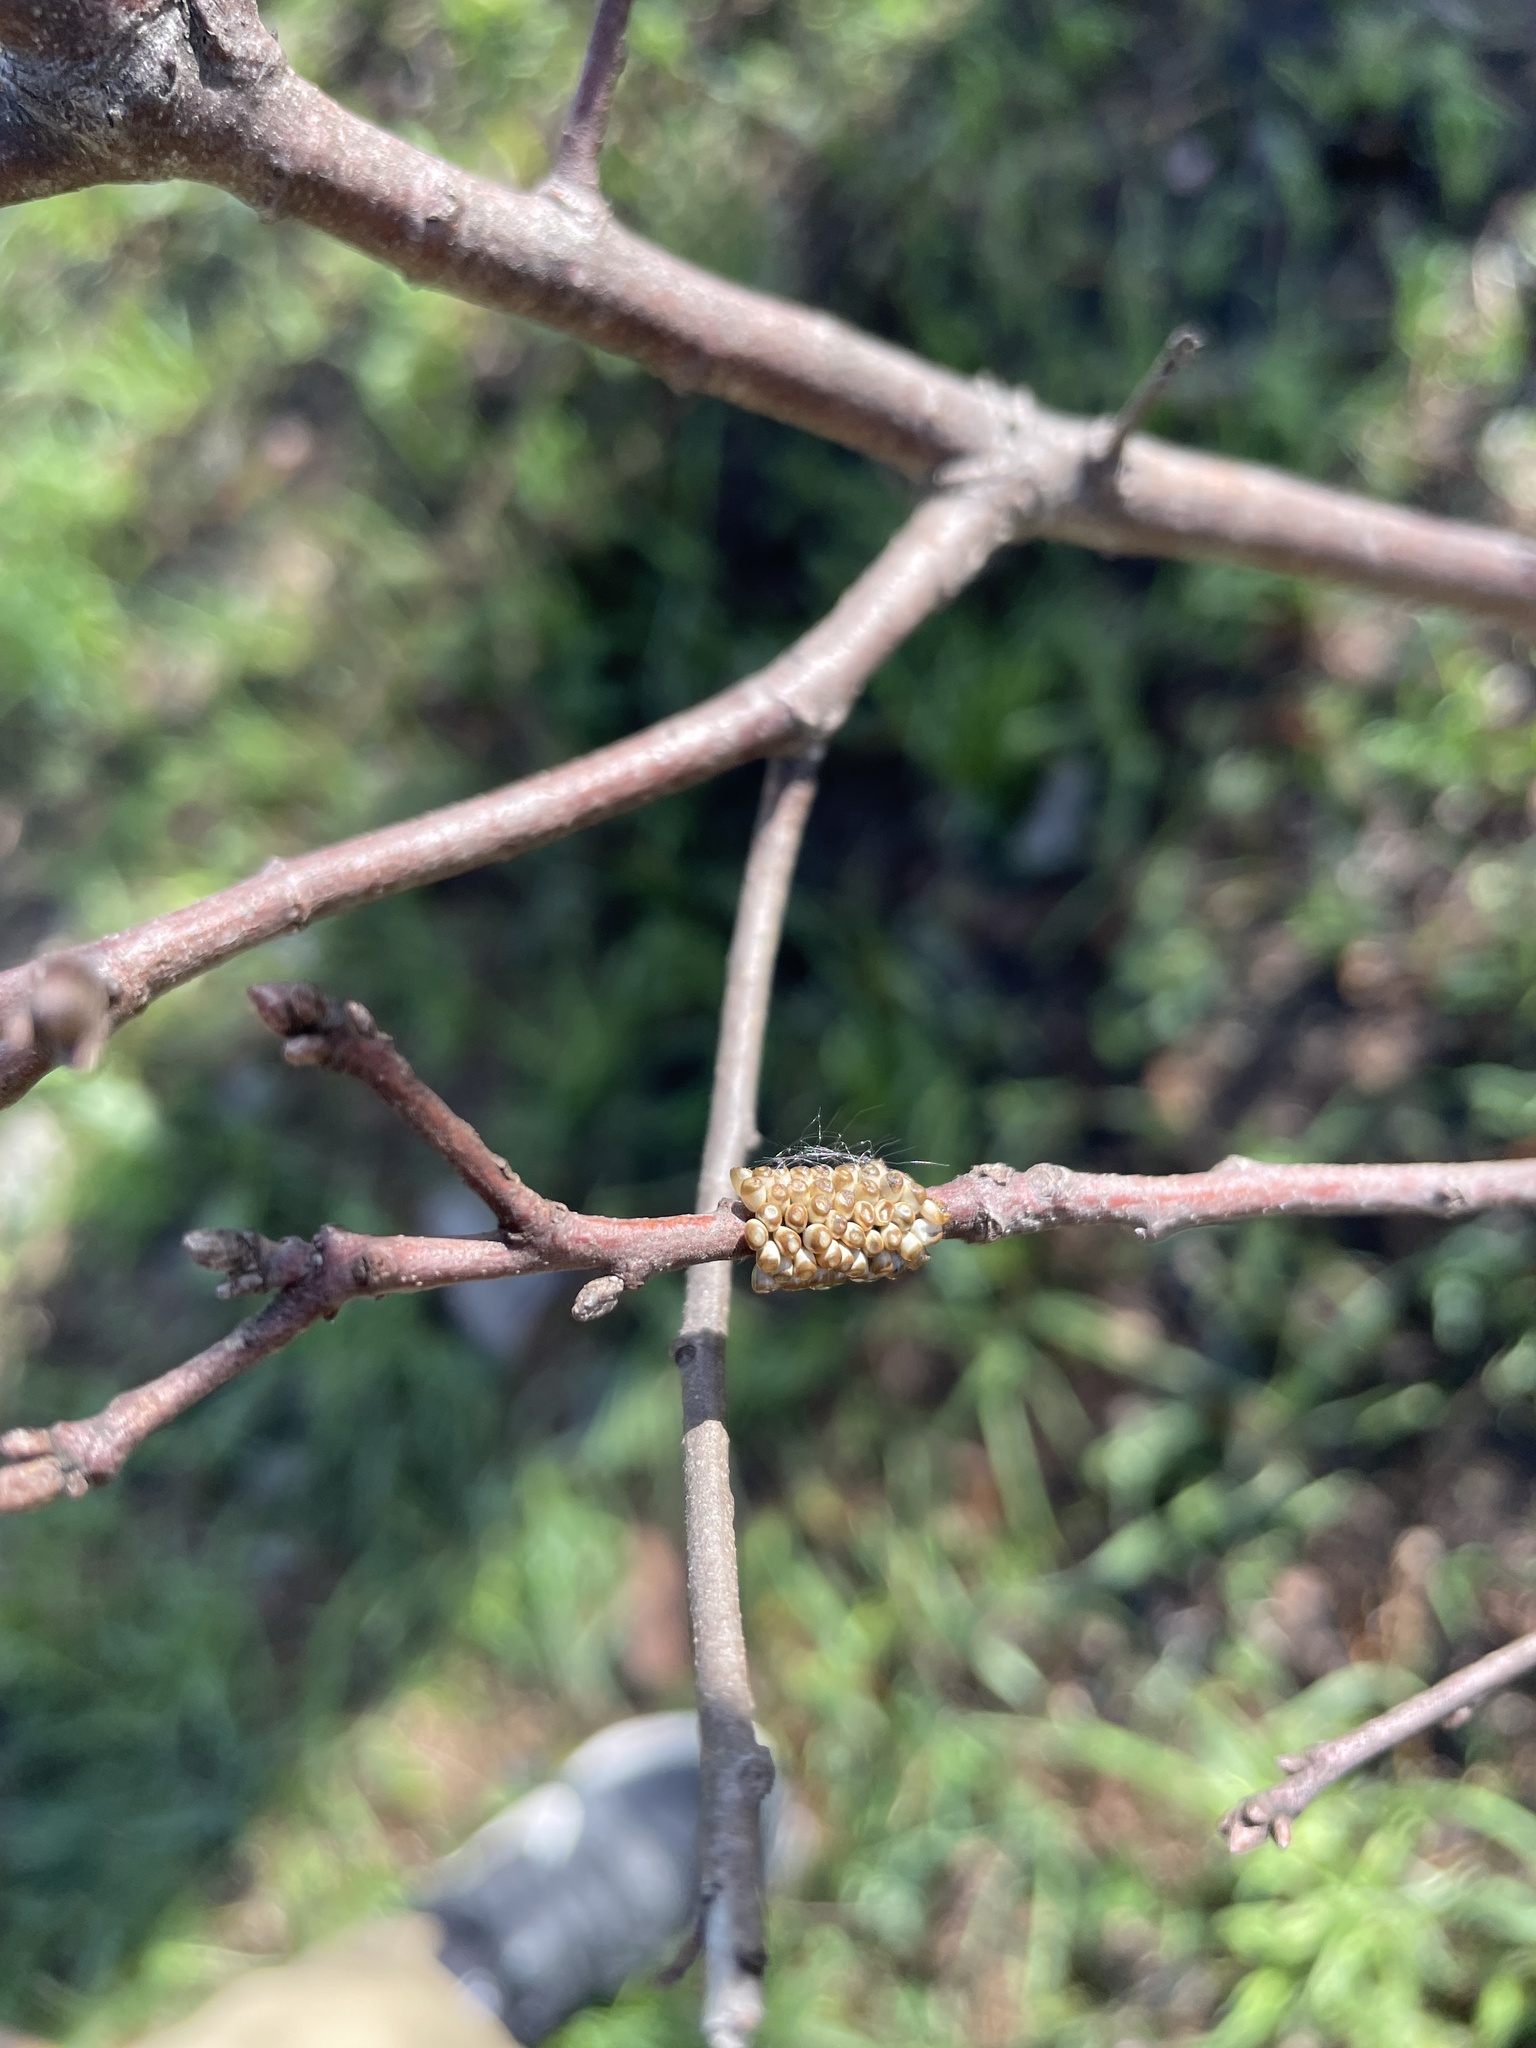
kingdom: Animalia
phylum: Arthropoda
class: Insecta
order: Lepidoptera
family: Saturniidae
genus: Hemileuca
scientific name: Hemileuca maia
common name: Eastern buckmoth
